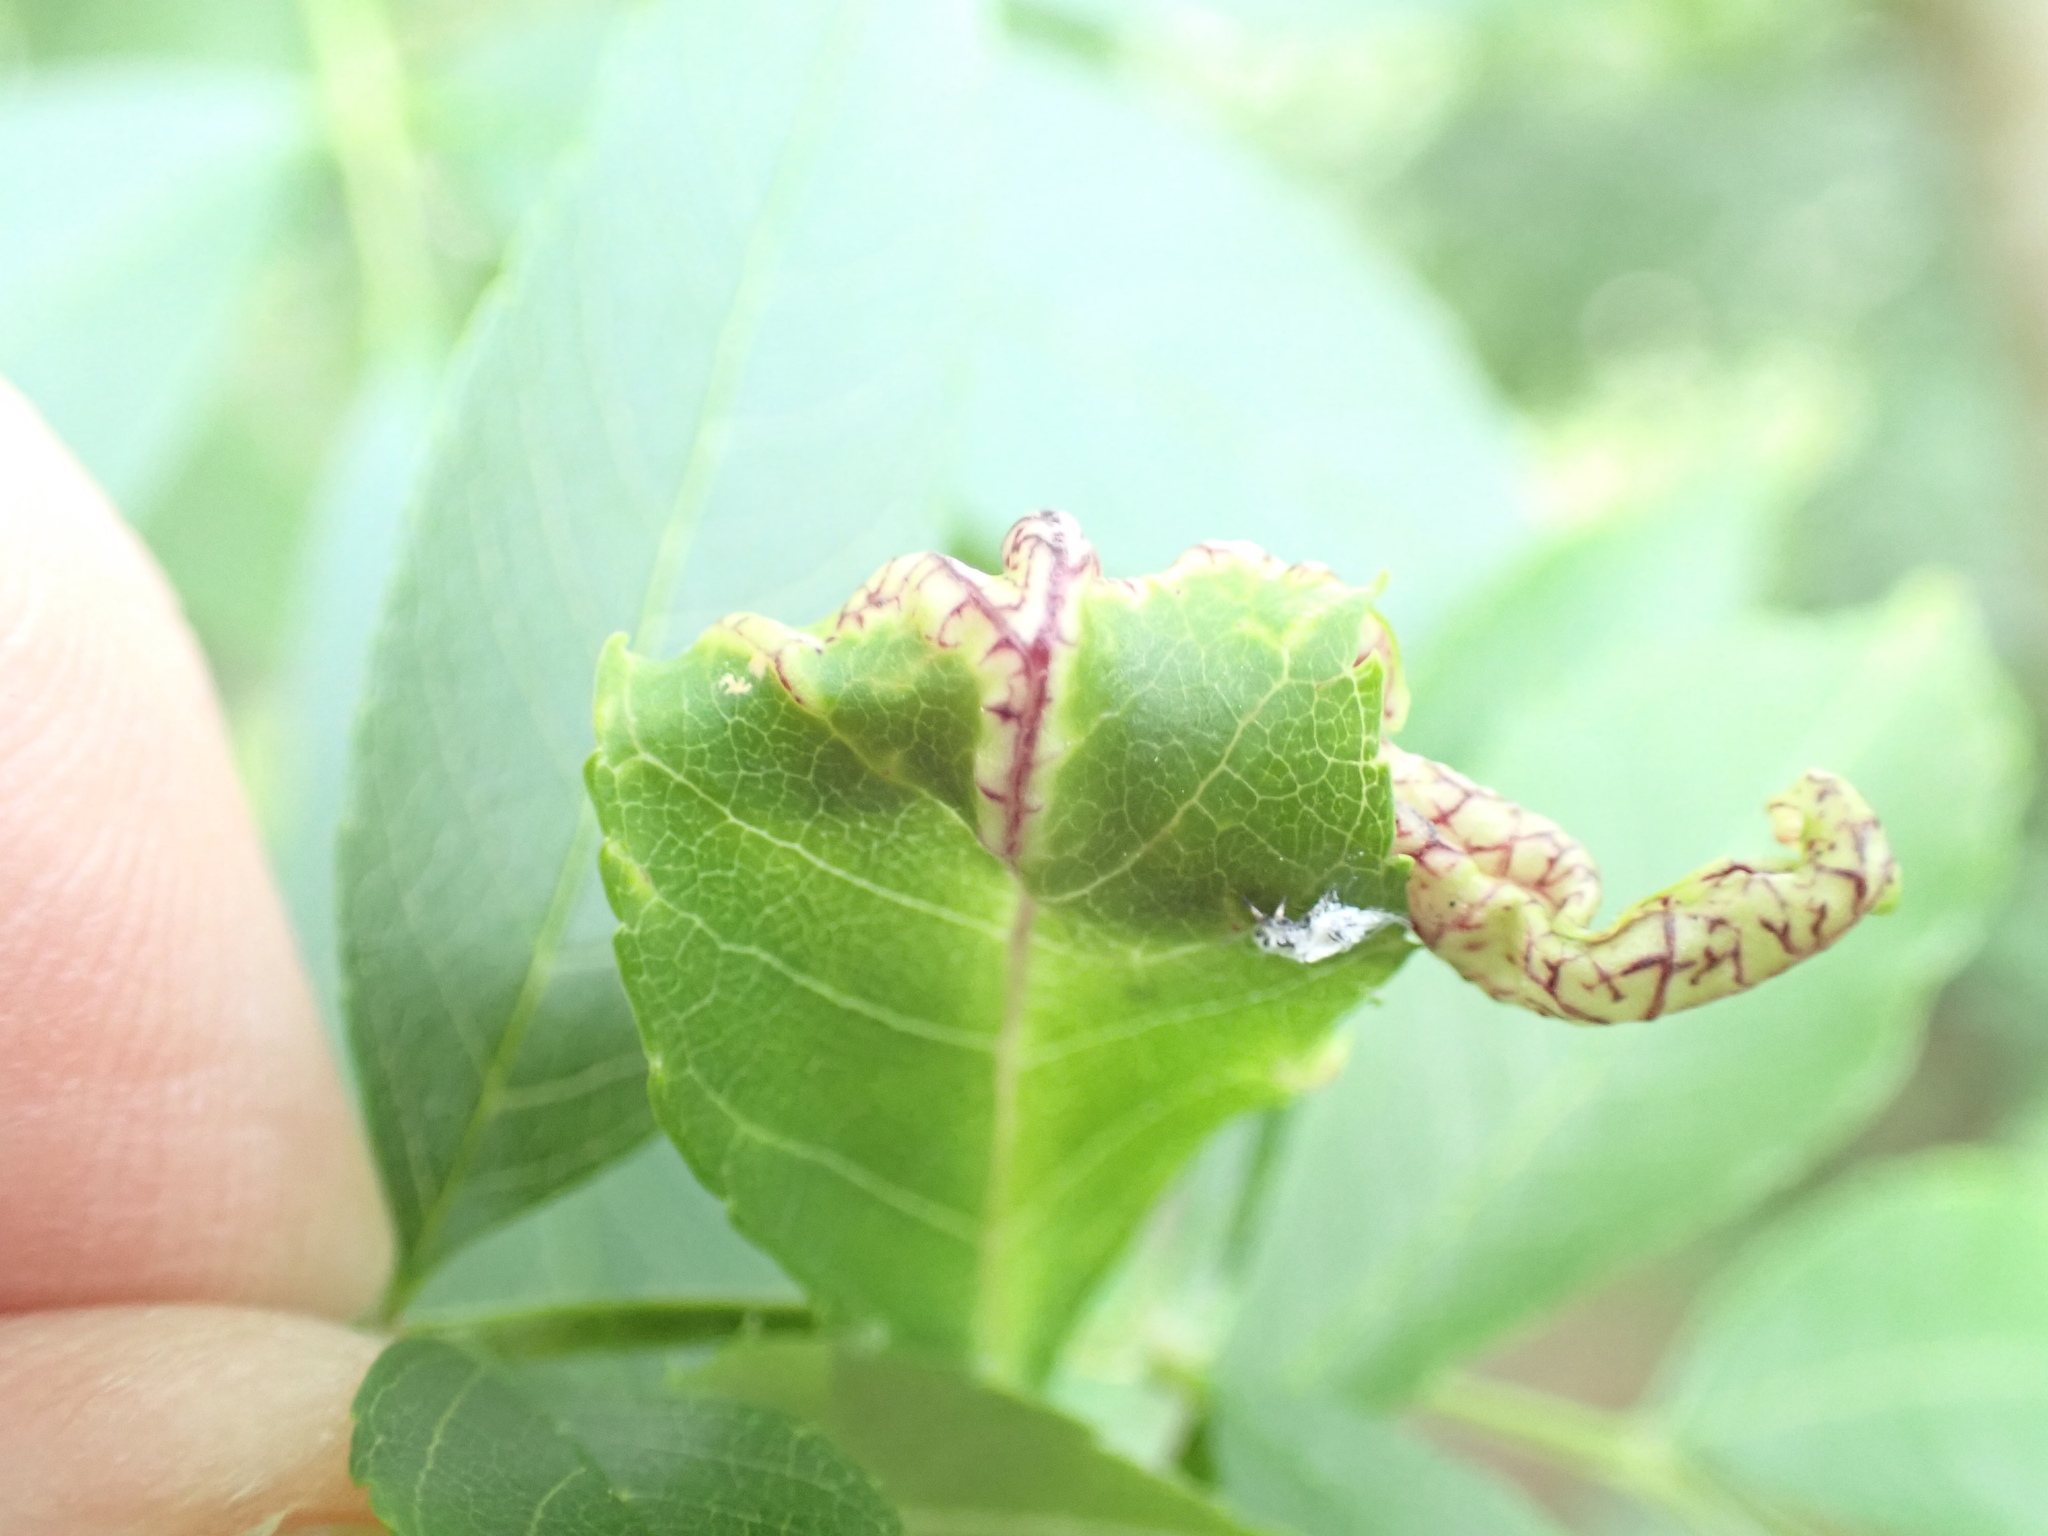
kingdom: Animalia
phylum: Arthropoda
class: Insecta
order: Hemiptera
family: Liviidae
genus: Psyllopsis
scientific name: Psyllopsis fraxini
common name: Jumping plant louse
